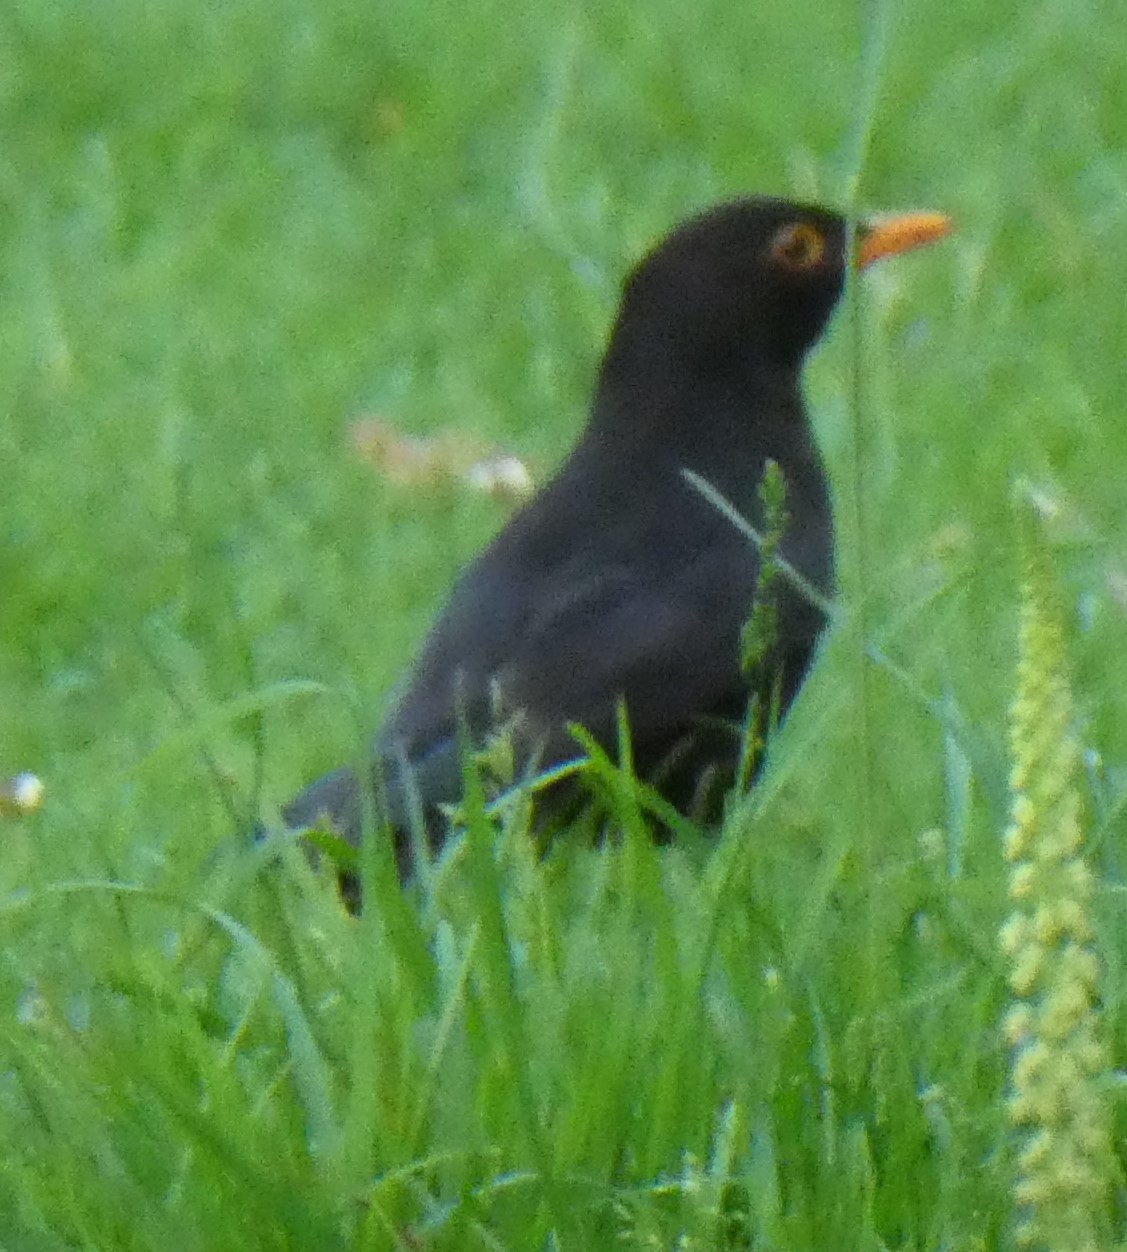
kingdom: Animalia
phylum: Chordata
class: Aves
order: Passeriformes
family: Turdidae
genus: Turdus
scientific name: Turdus merula
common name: Common blackbird
